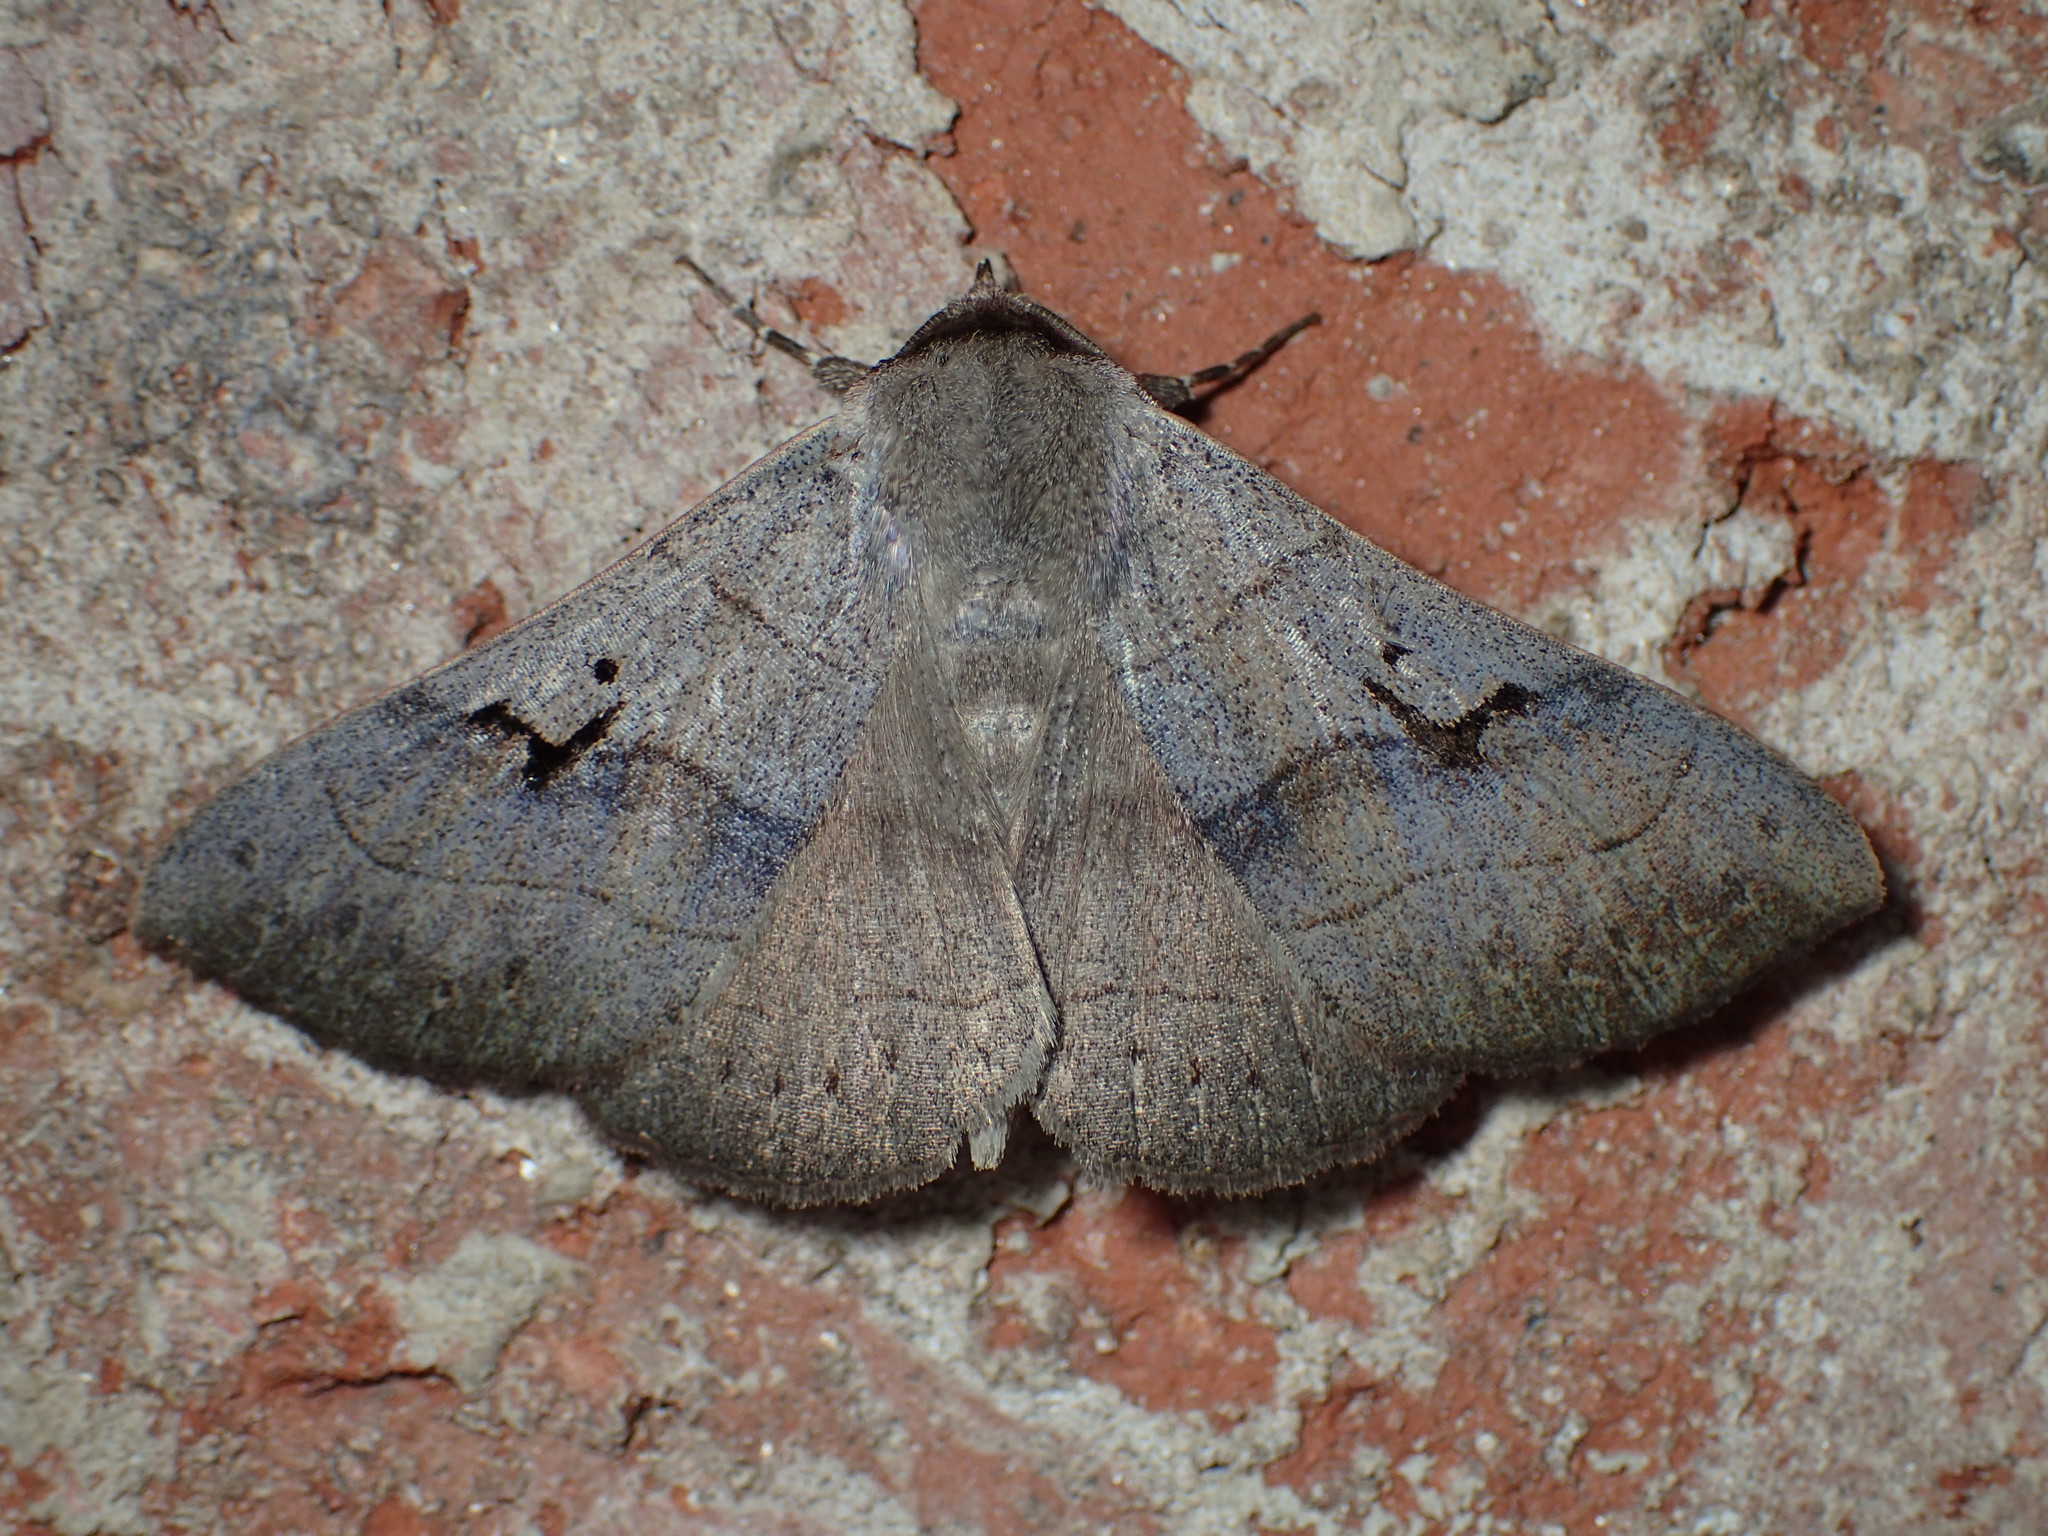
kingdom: Animalia
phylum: Arthropoda
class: Insecta
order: Lepidoptera
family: Erebidae
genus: Panopoda
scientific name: Panopoda carneicosta
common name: Brown panopoda moth
